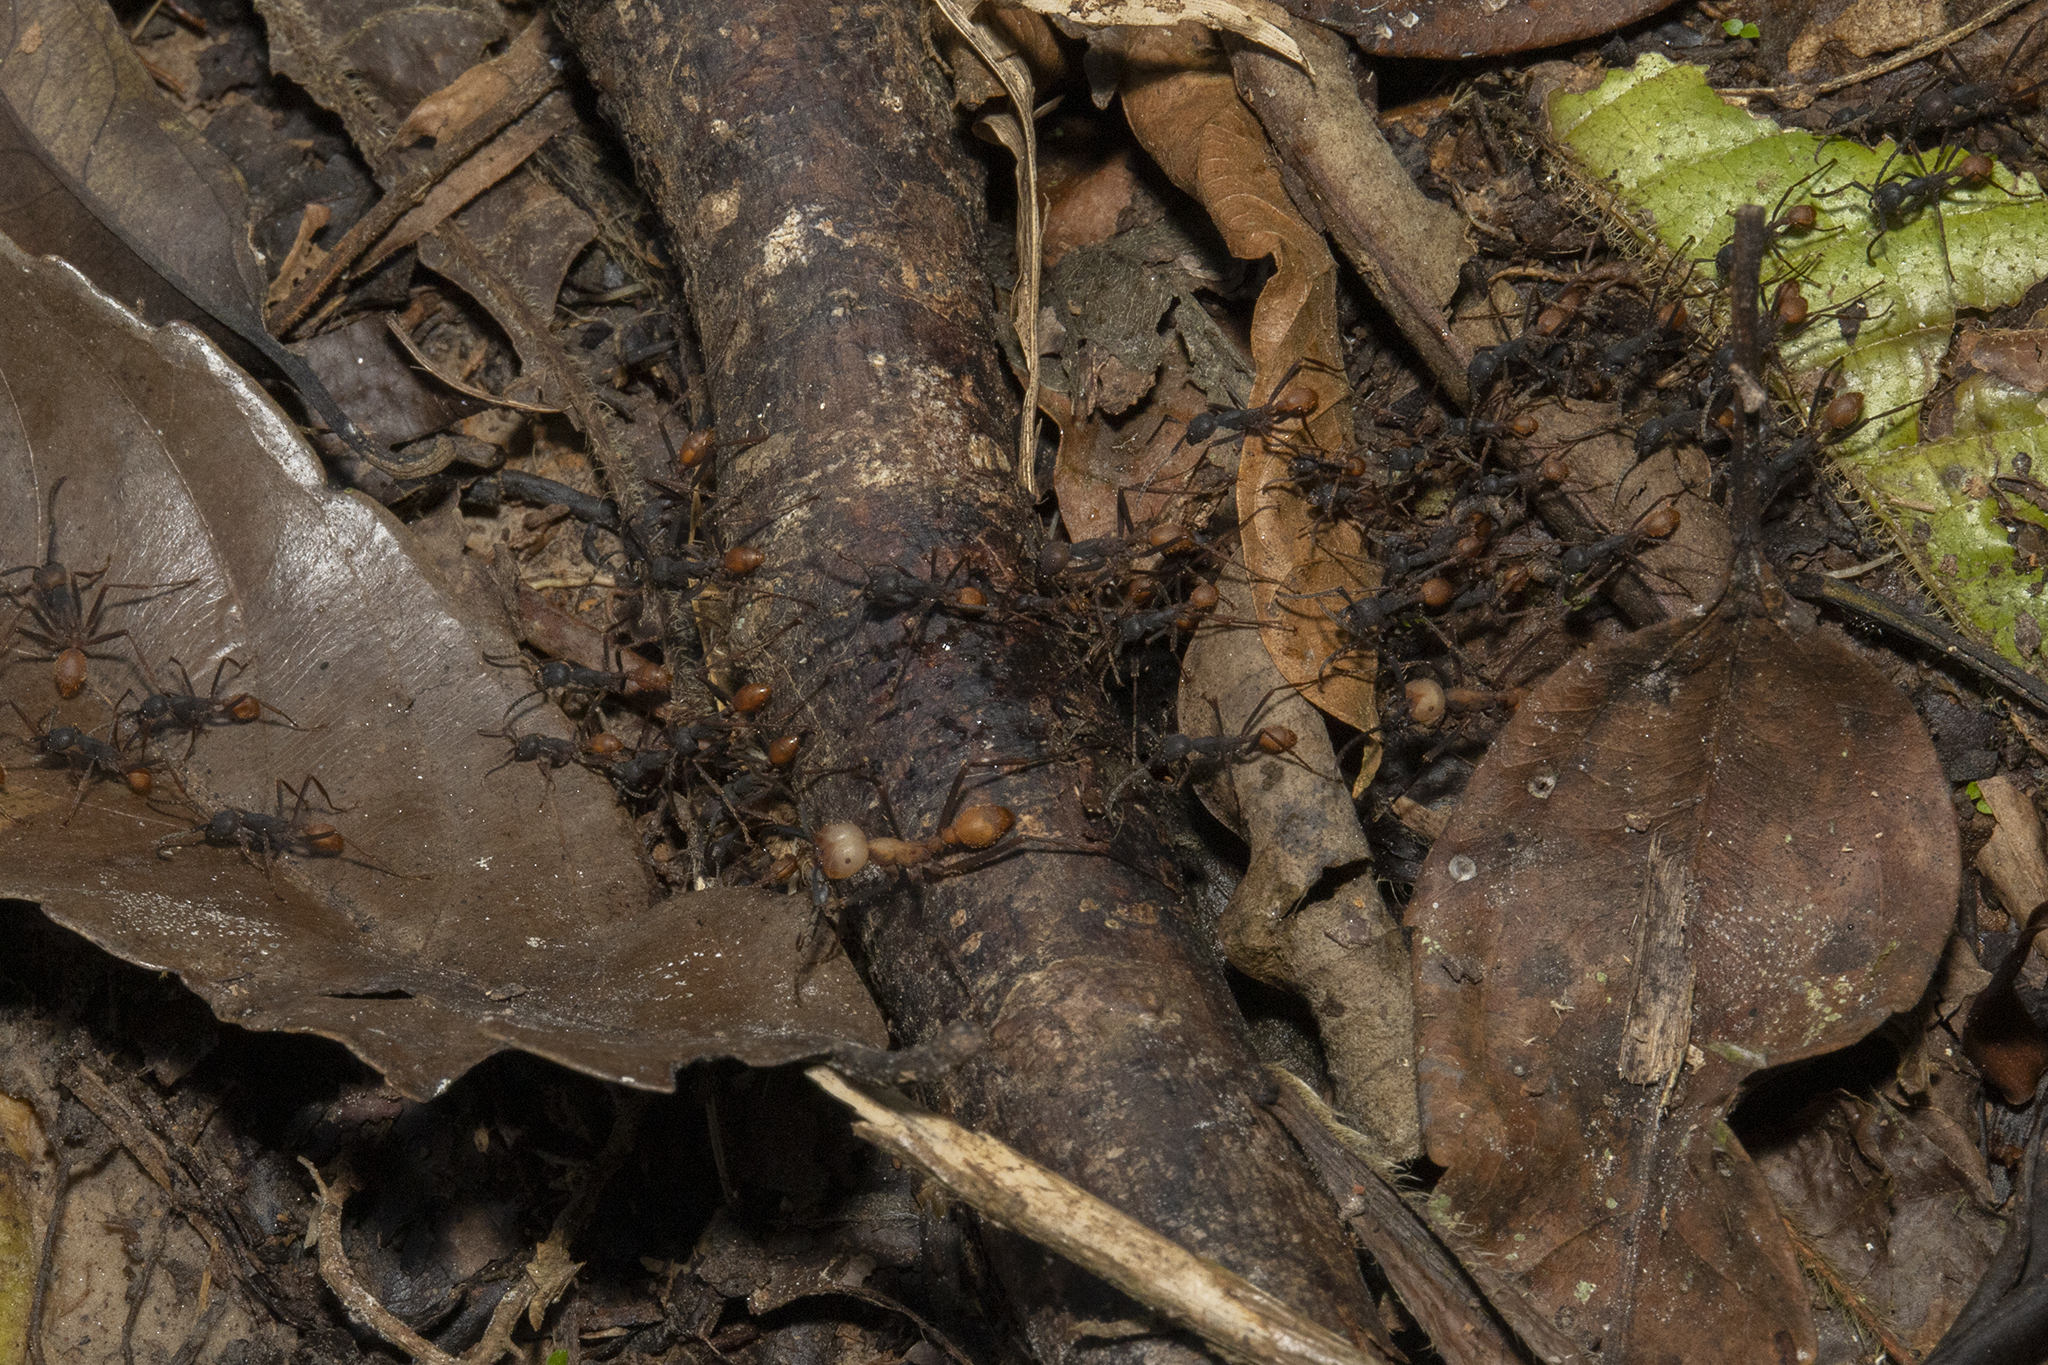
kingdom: Animalia
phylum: Arthropoda
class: Insecta
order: Hymenoptera
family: Formicidae
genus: Eciton
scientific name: Eciton burchellii
